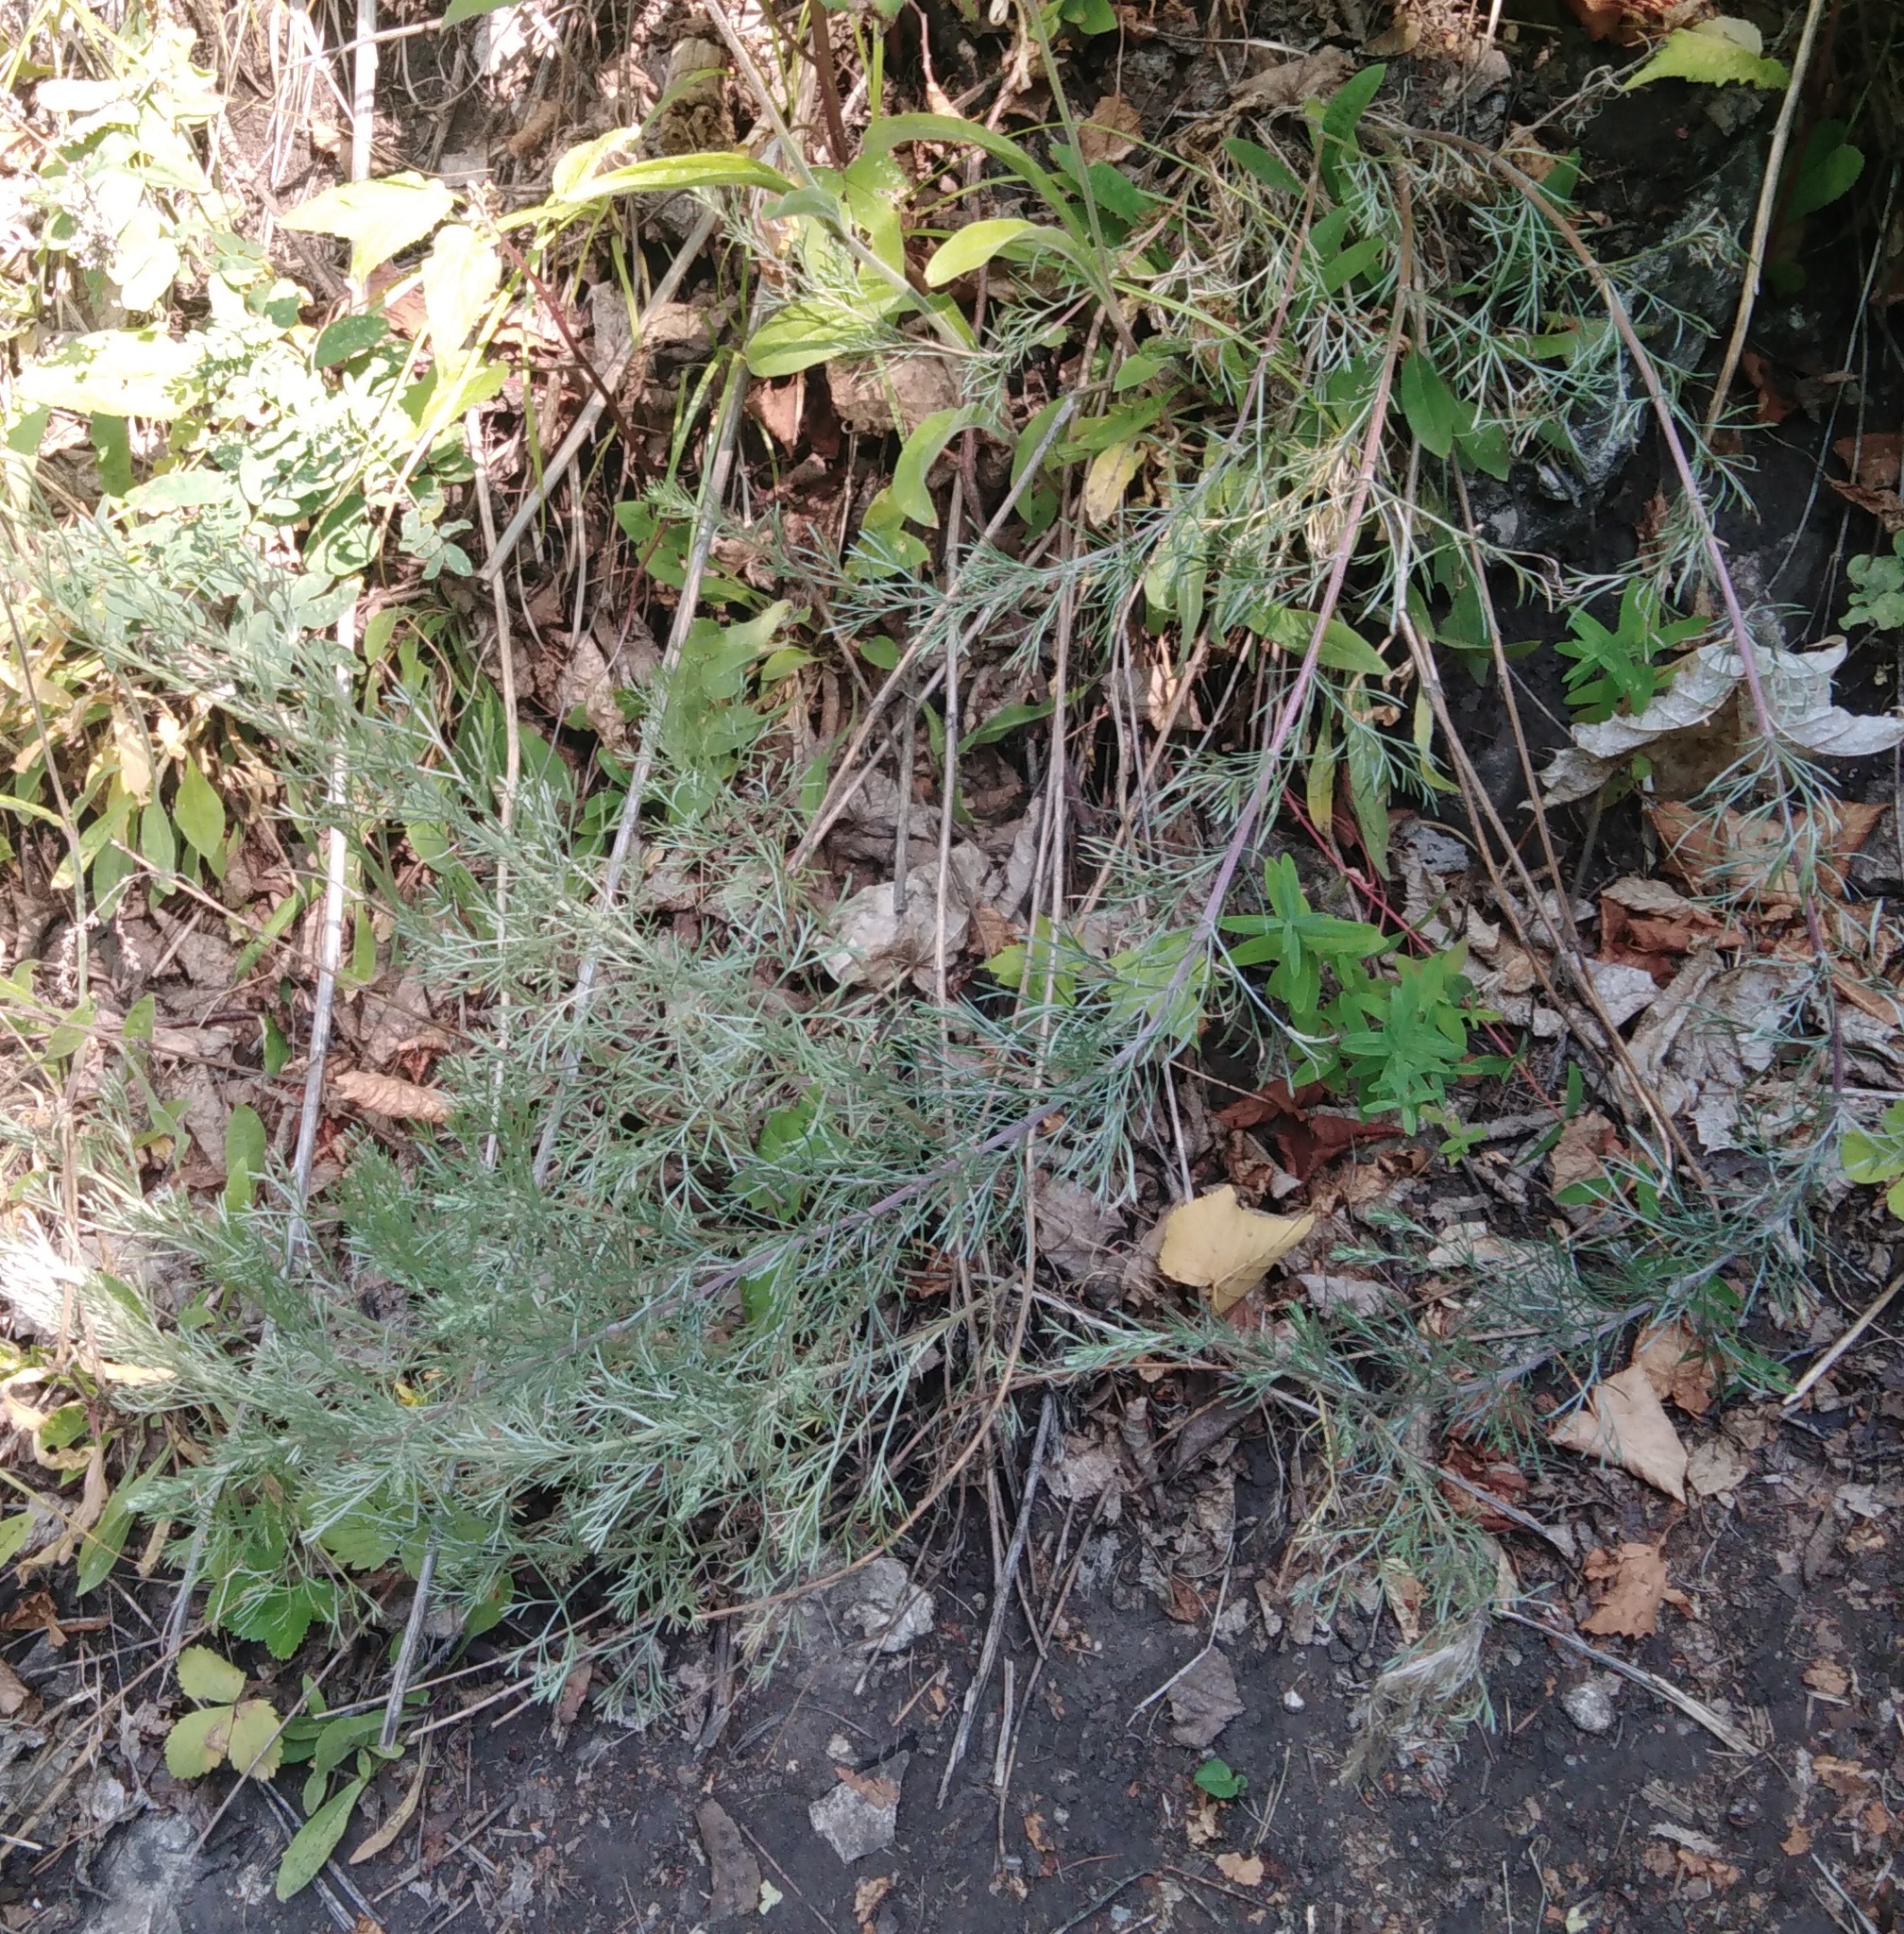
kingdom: Plantae
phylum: Tracheophyta
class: Magnoliopsida
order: Asterales
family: Asteraceae
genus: Artemisia
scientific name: Artemisia campestris
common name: Field wormwood
